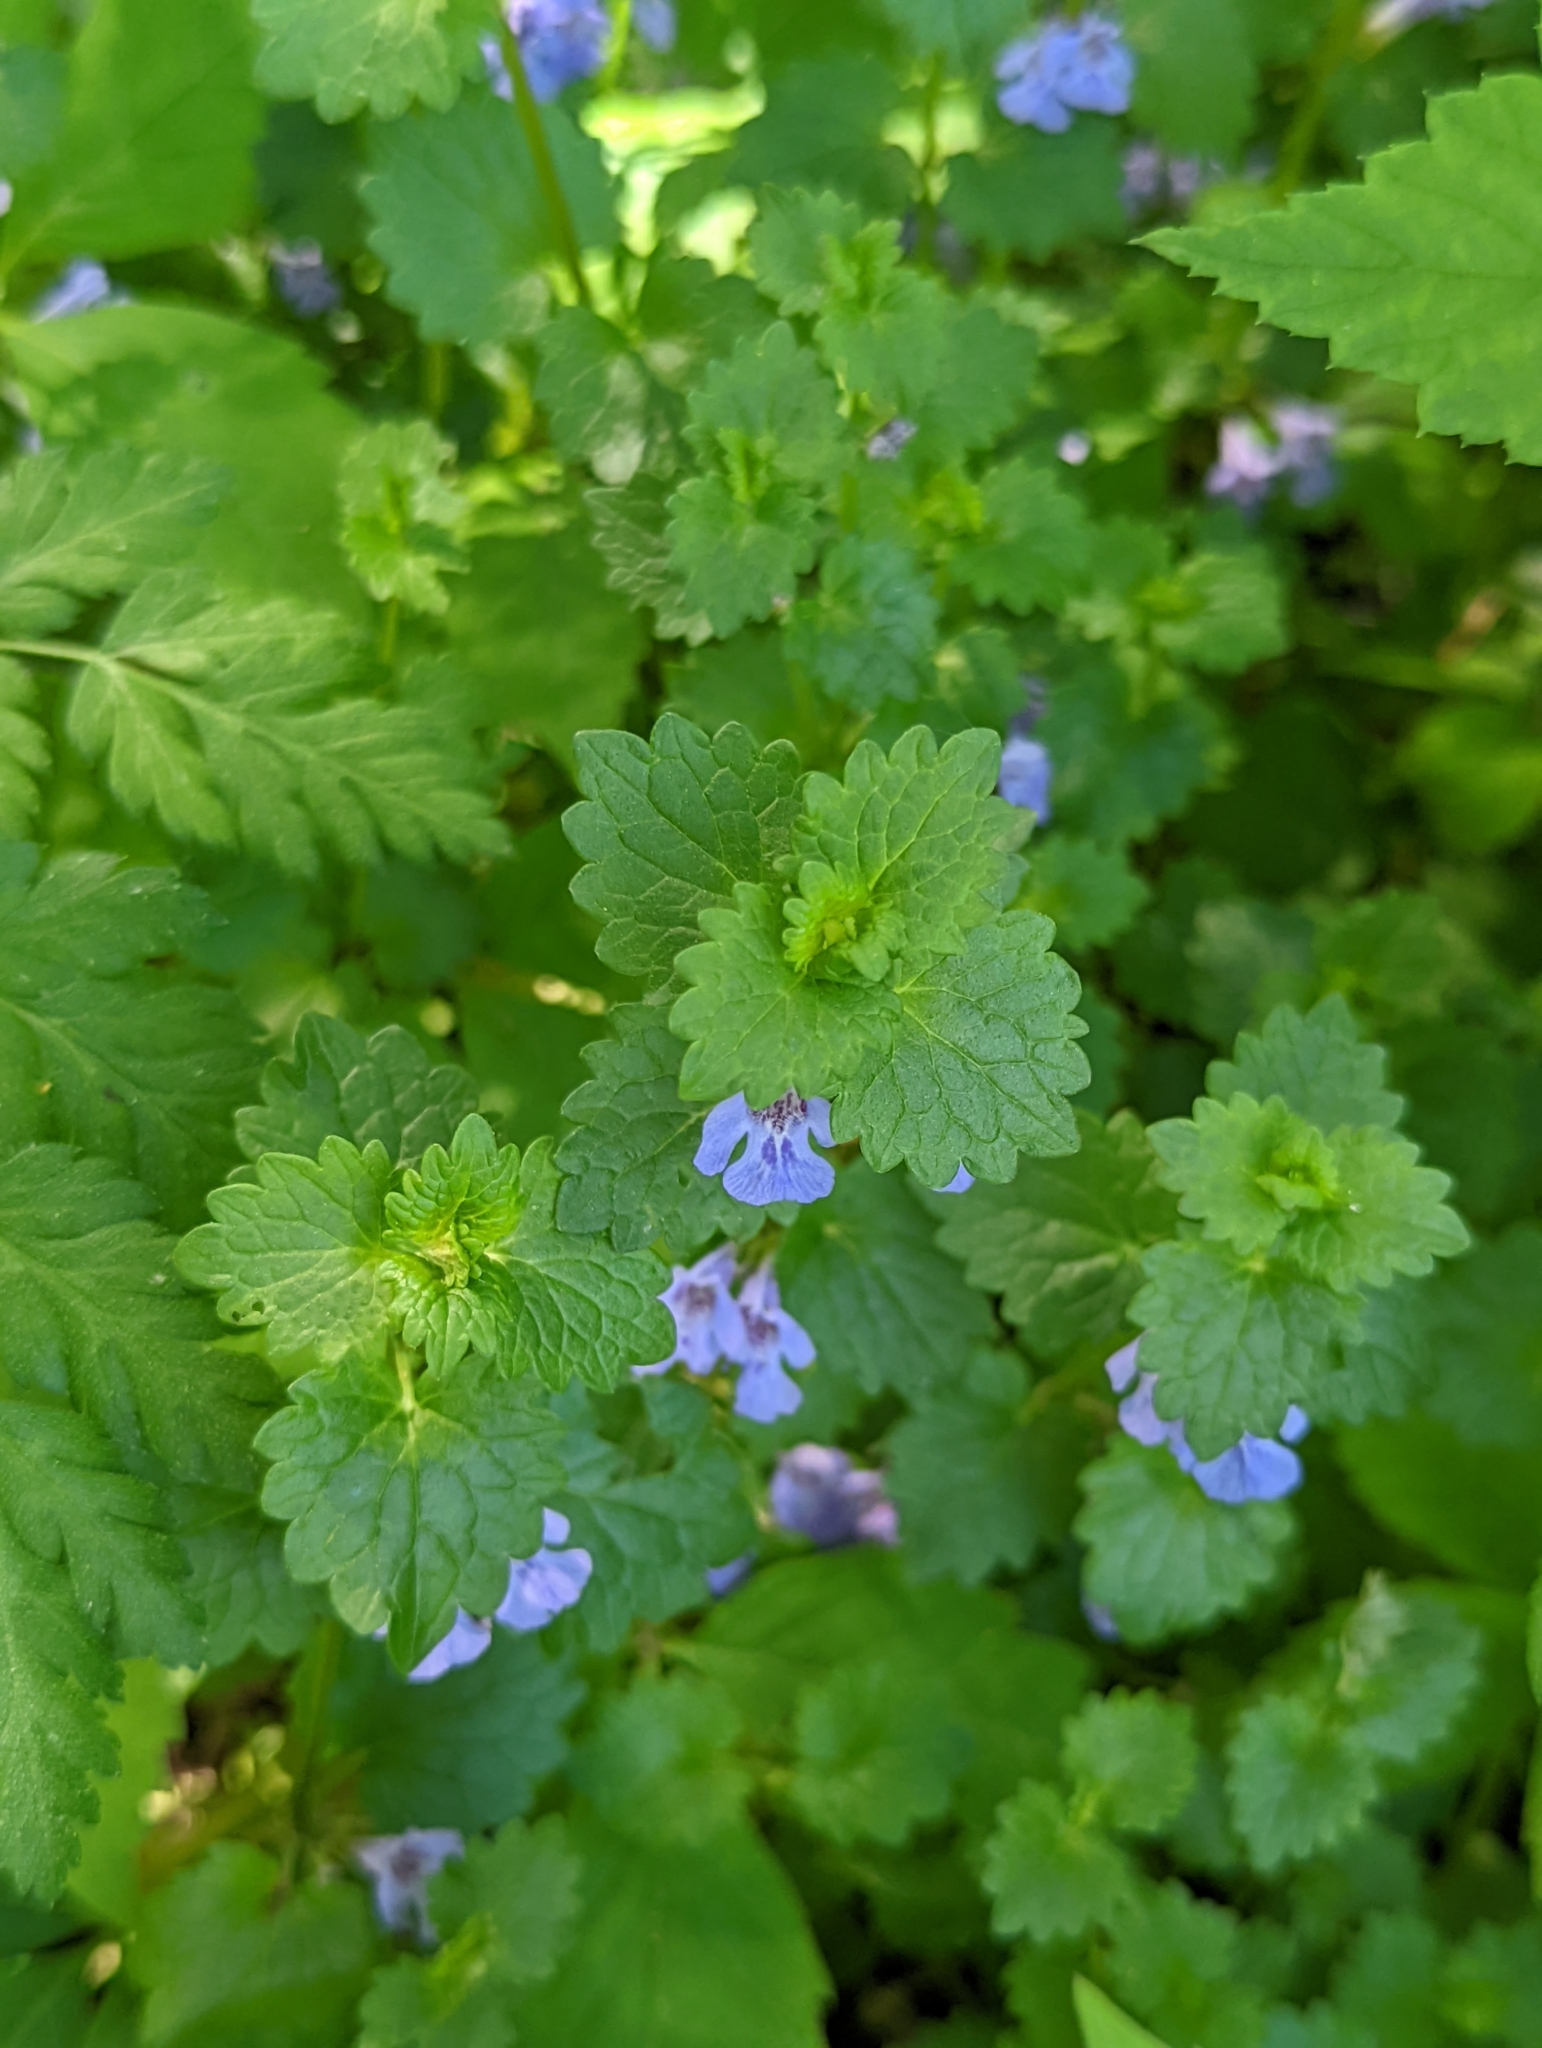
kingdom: Plantae
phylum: Tracheophyta
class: Magnoliopsida
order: Lamiales
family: Lamiaceae
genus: Glechoma
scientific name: Glechoma hederacea
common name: Ground ivy
